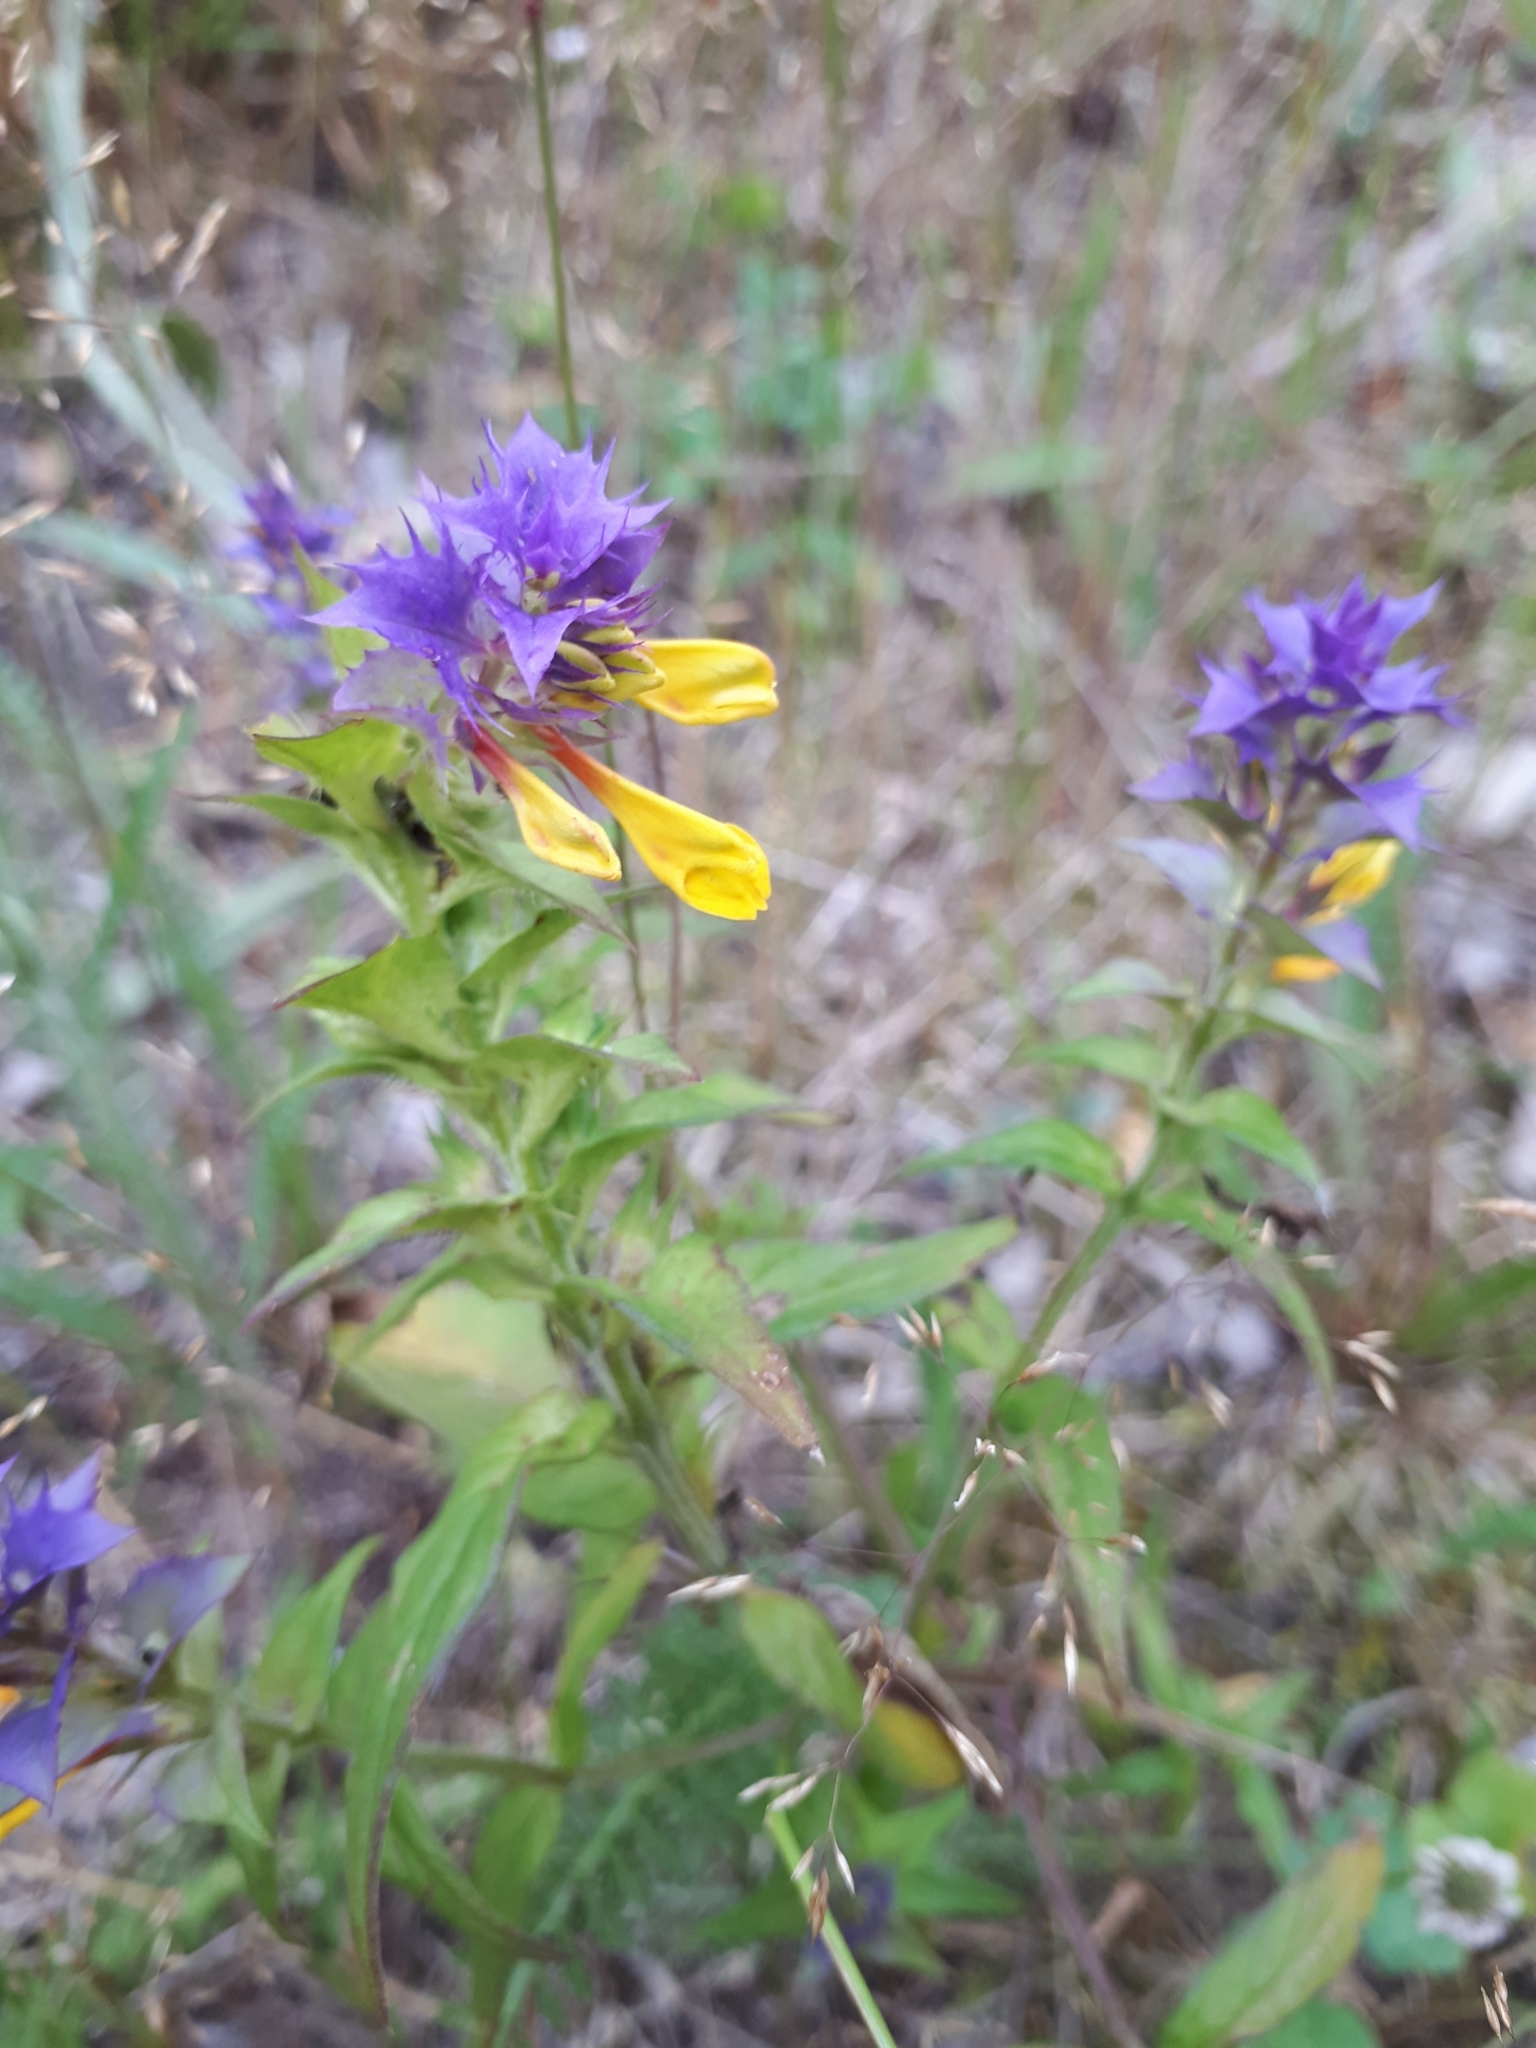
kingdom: Plantae
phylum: Tracheophyta
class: Magnoliopsida
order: Lamiales
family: Orobanchaceae
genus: Melampyrum
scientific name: Melampyrum nemorosum
